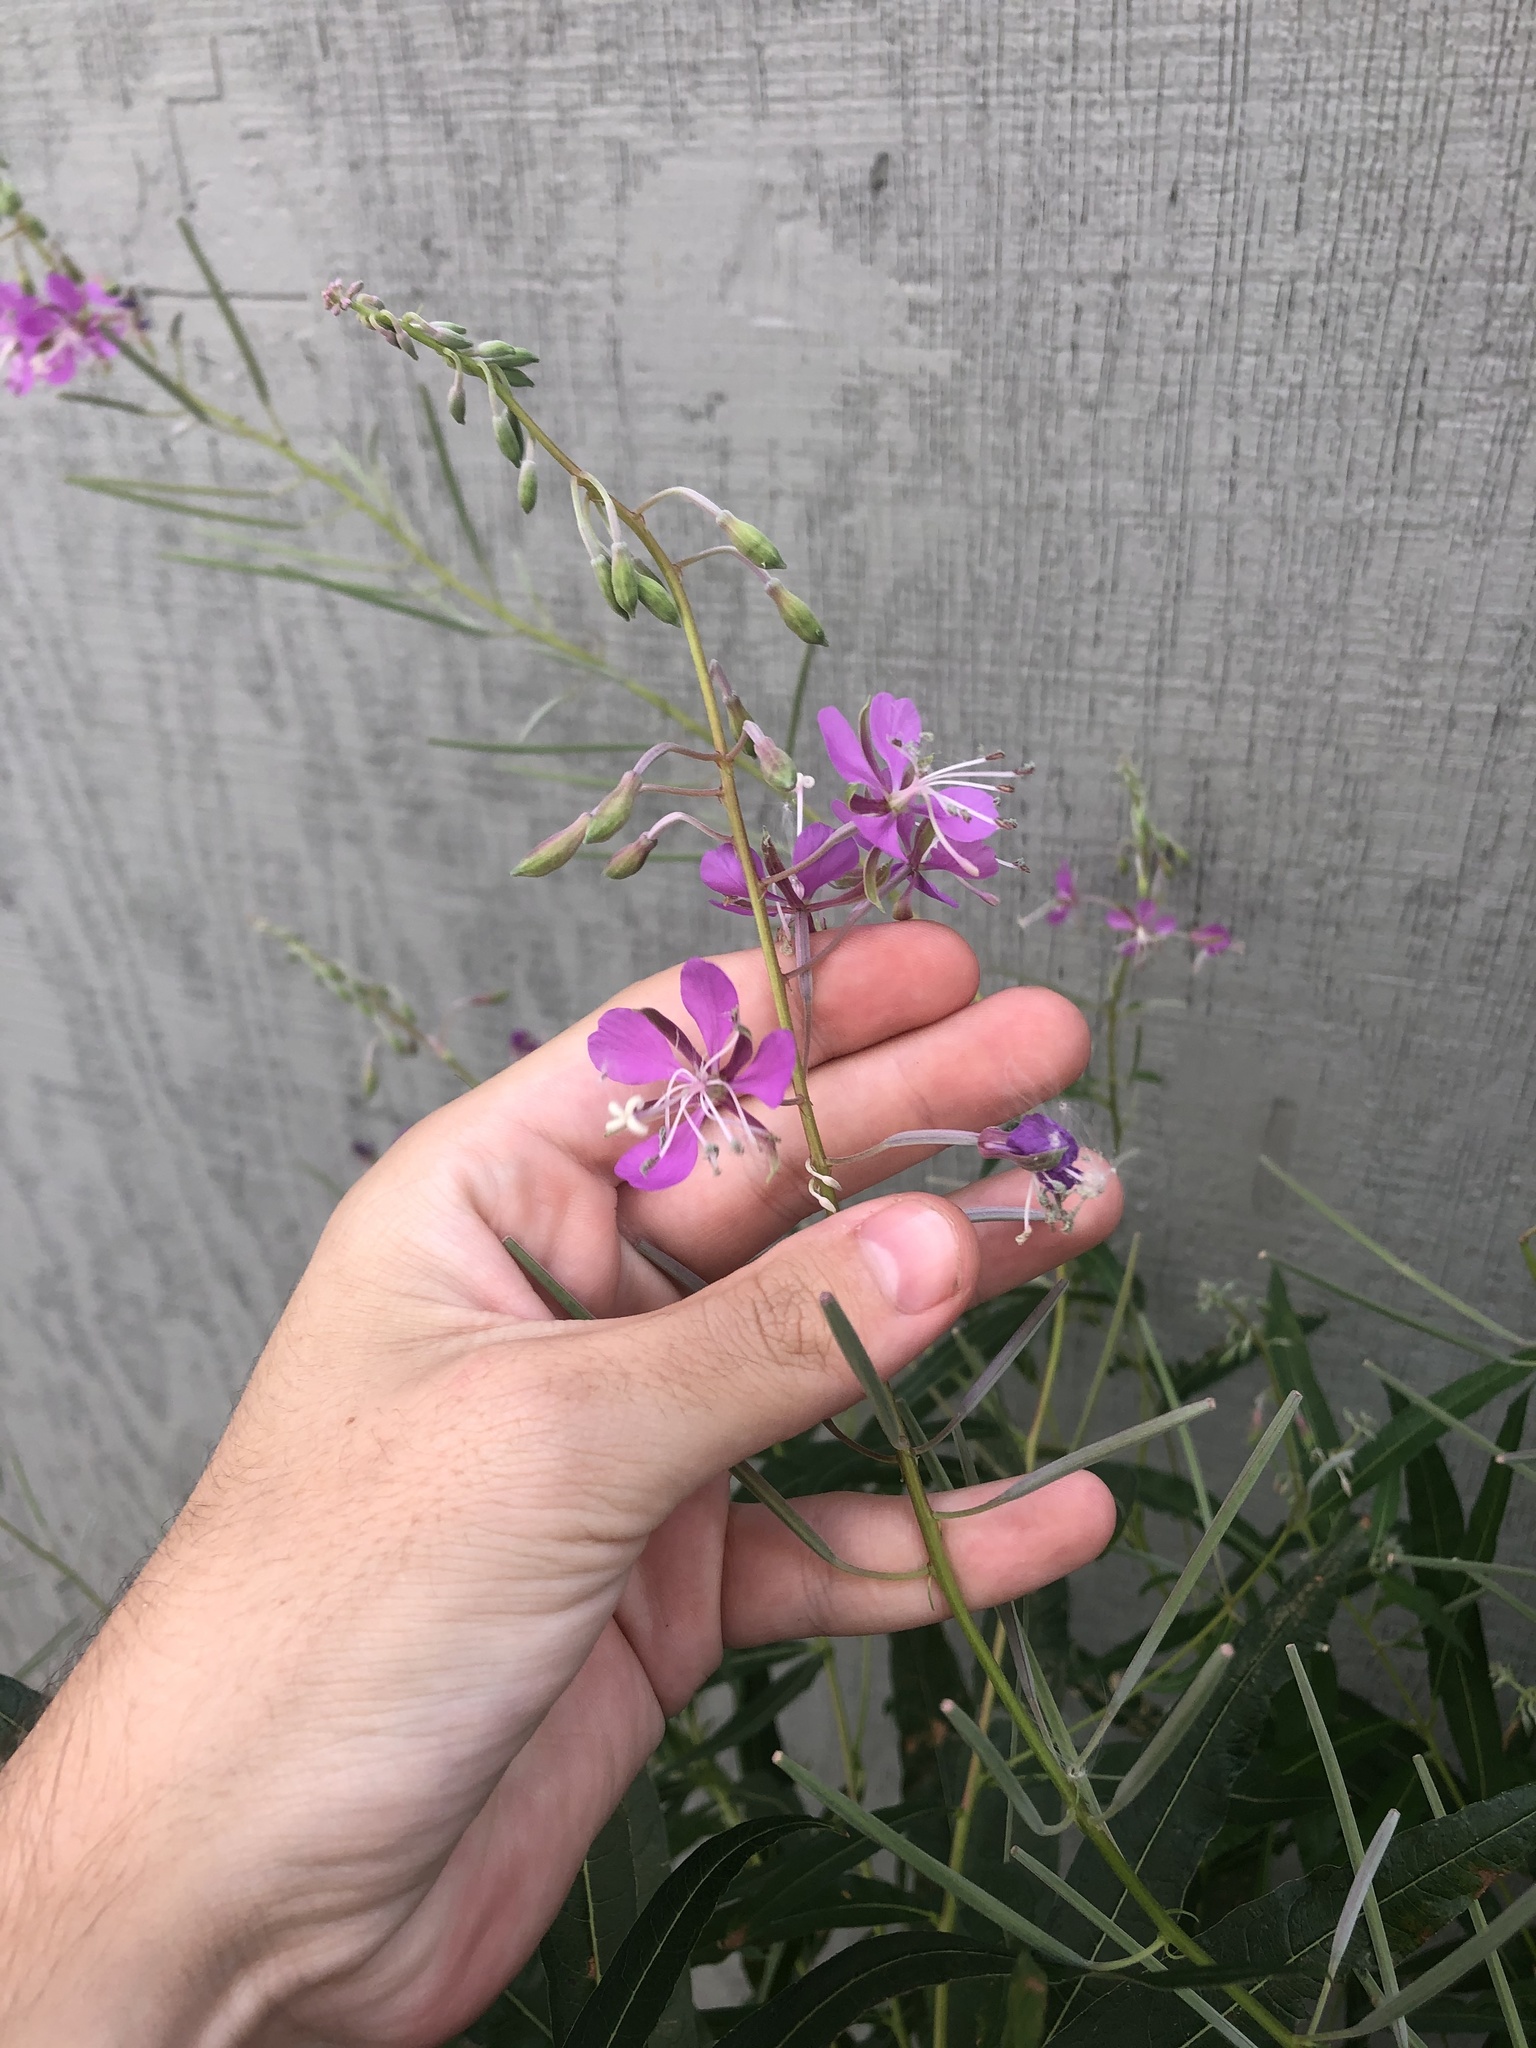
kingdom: Plantae
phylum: Tracheophyta
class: Magnoliopsida
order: Myrtales
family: Onagraceae
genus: Chamaenerion
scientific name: Chamaenerion angustifolium
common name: Fireweed
